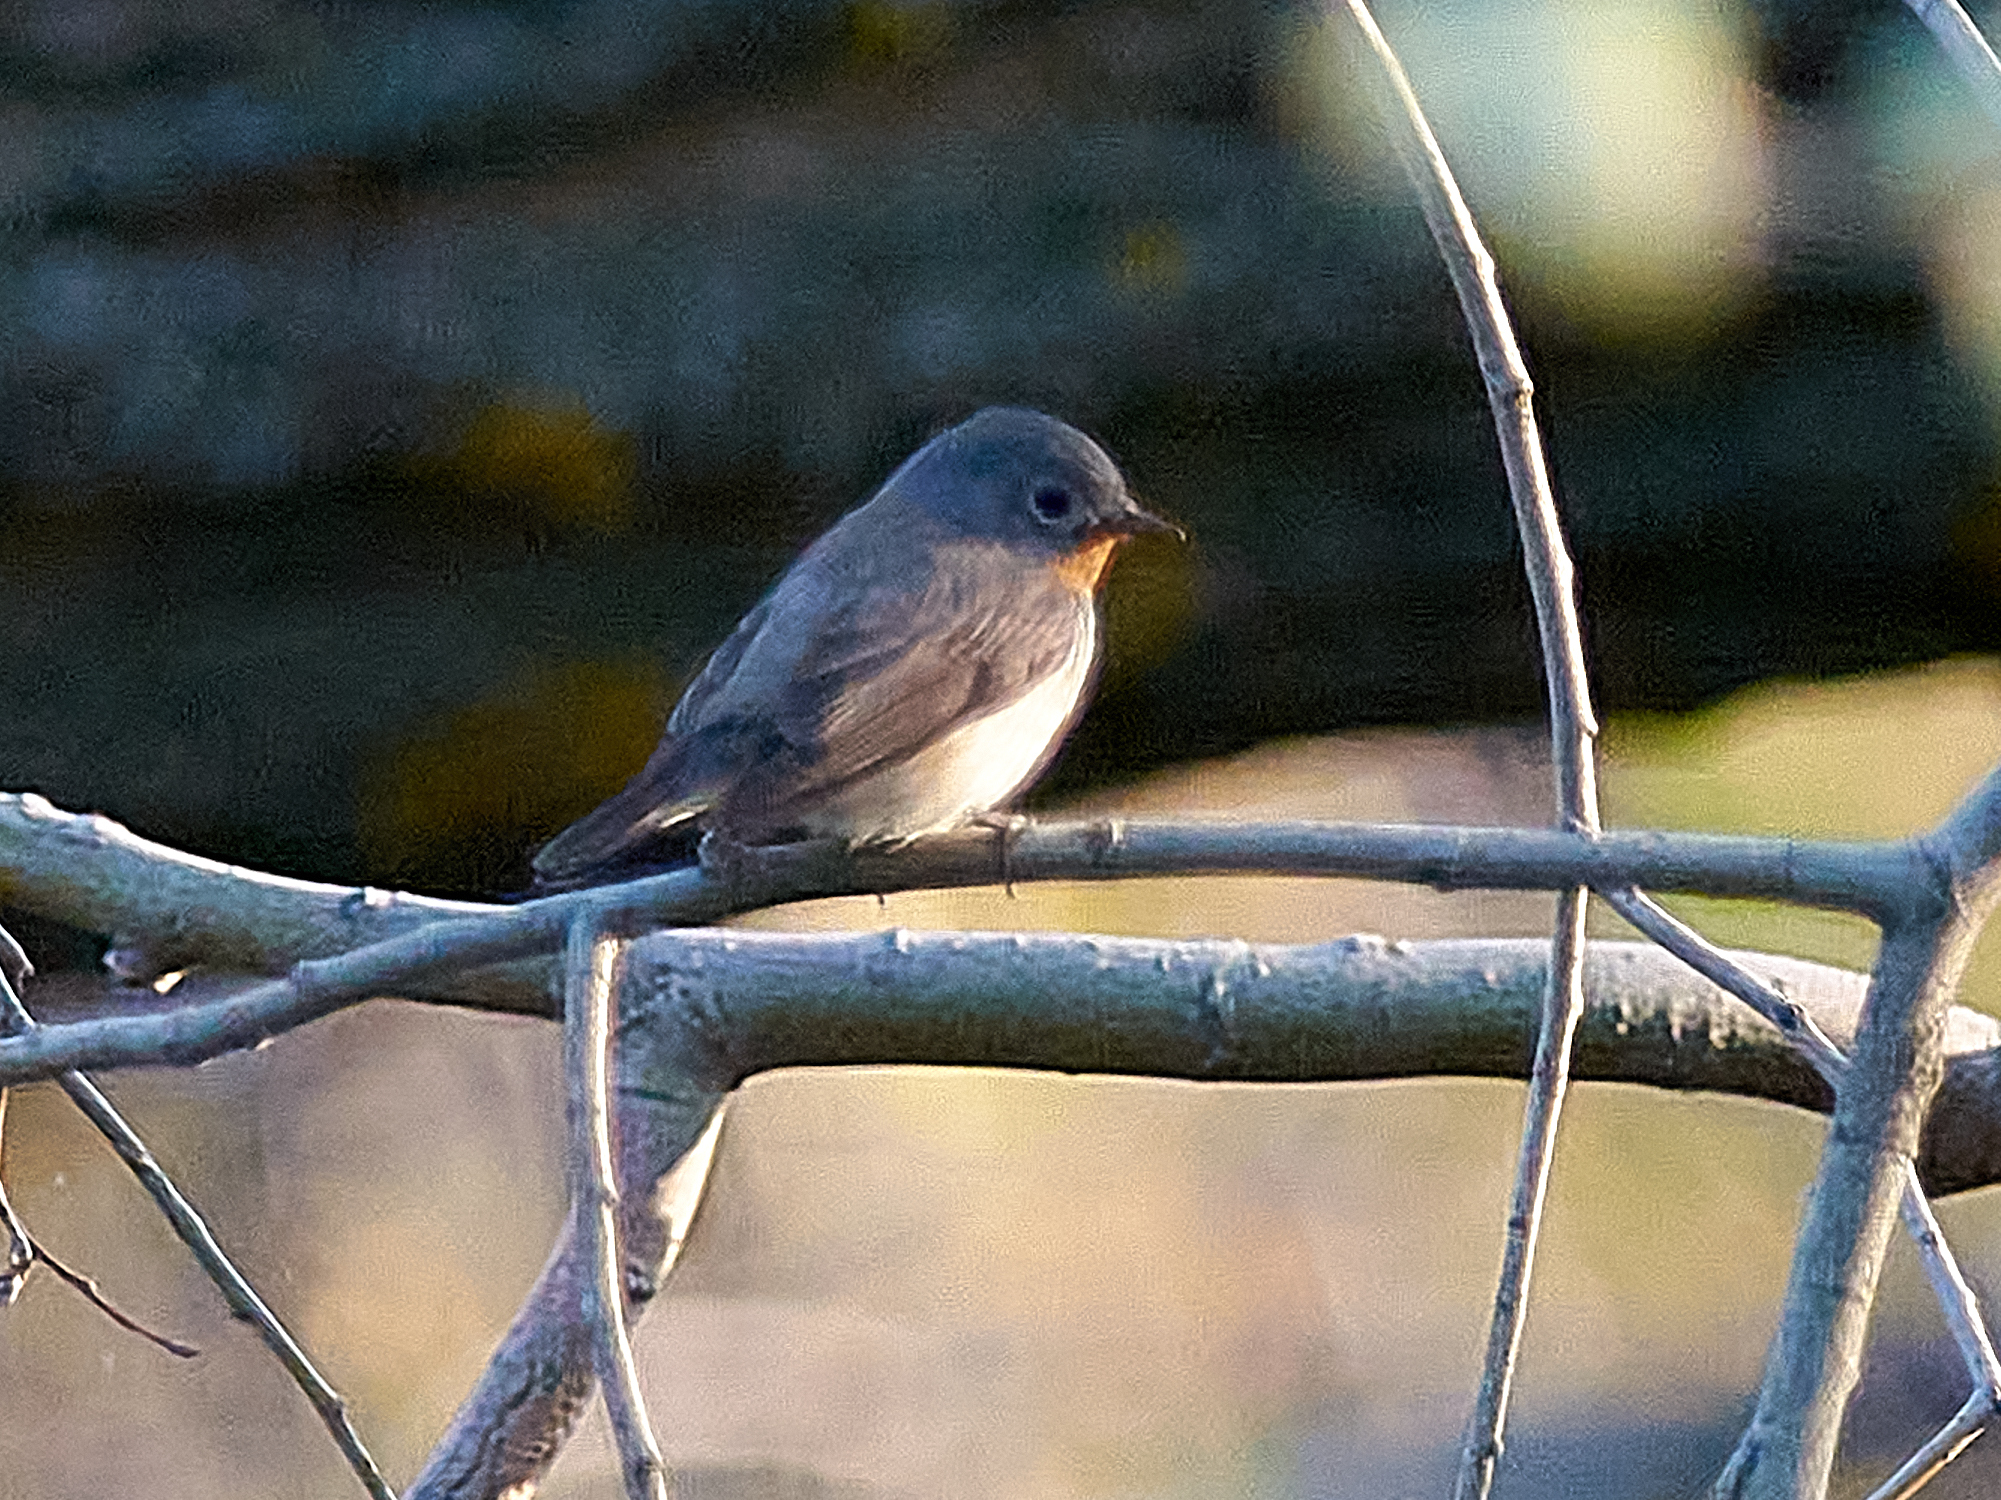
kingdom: Animalia
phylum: Chordata
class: Aves
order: Passeriformes
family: Muscicapidae
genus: Ficedula
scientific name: Ficedula parva
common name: Red-breasted flycatcher
